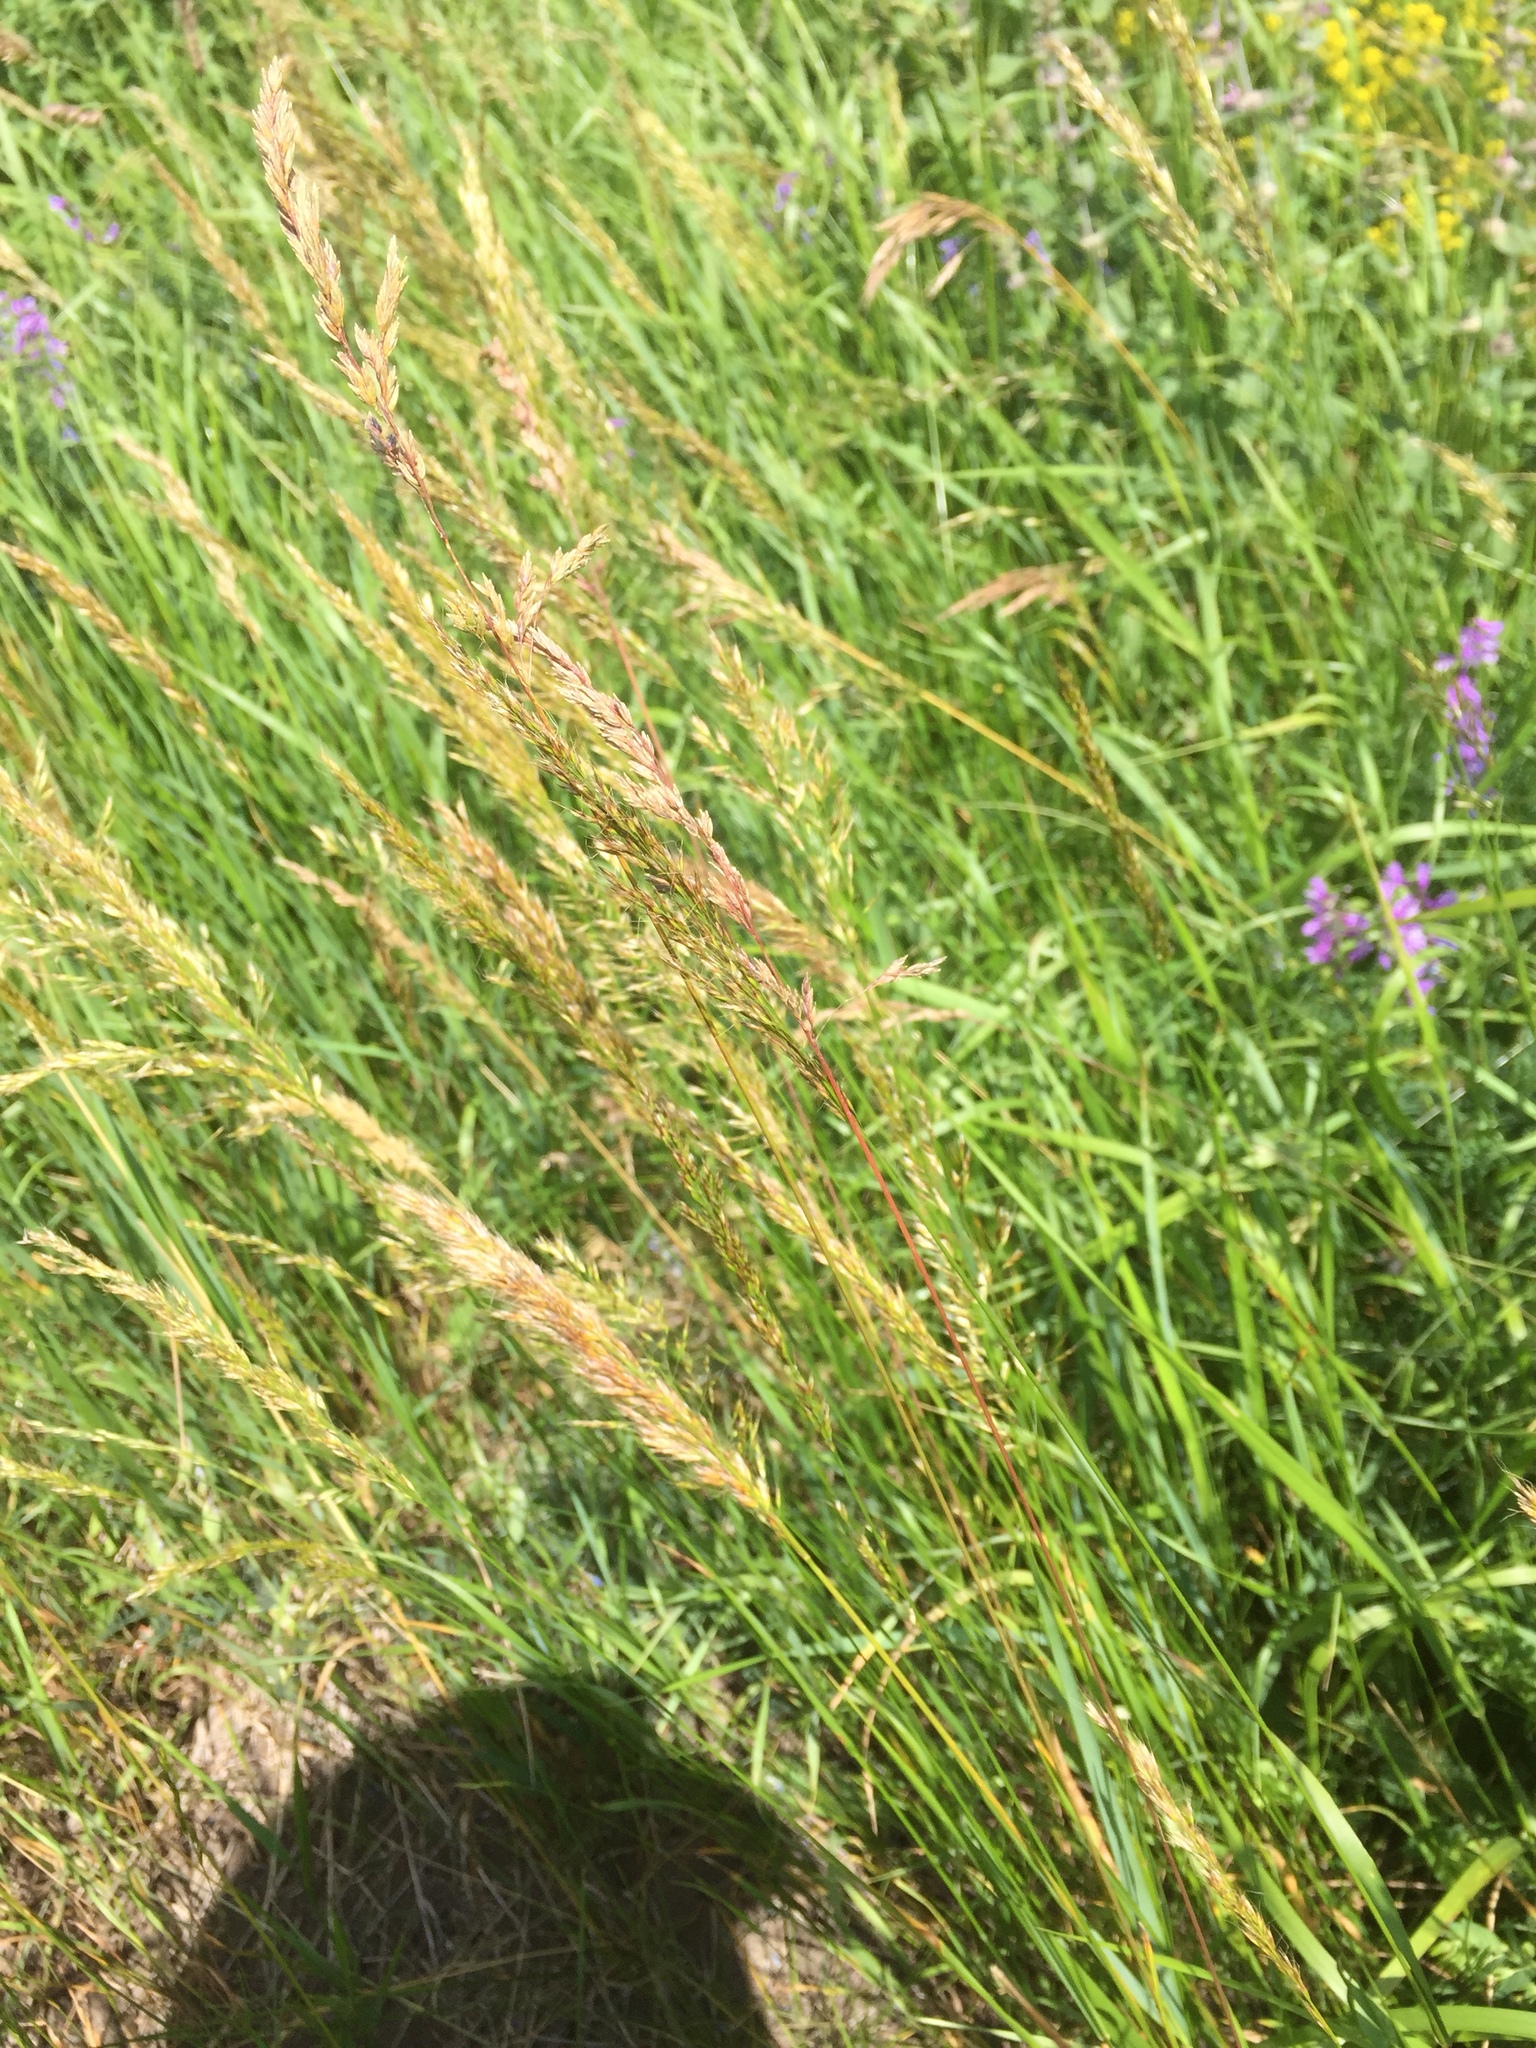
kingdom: Plantae
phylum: Tracheophyta
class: Liliopsida
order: Poales
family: Poaceae
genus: Trisetum
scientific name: Trisetum flavescens
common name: Yellow oat-grass
